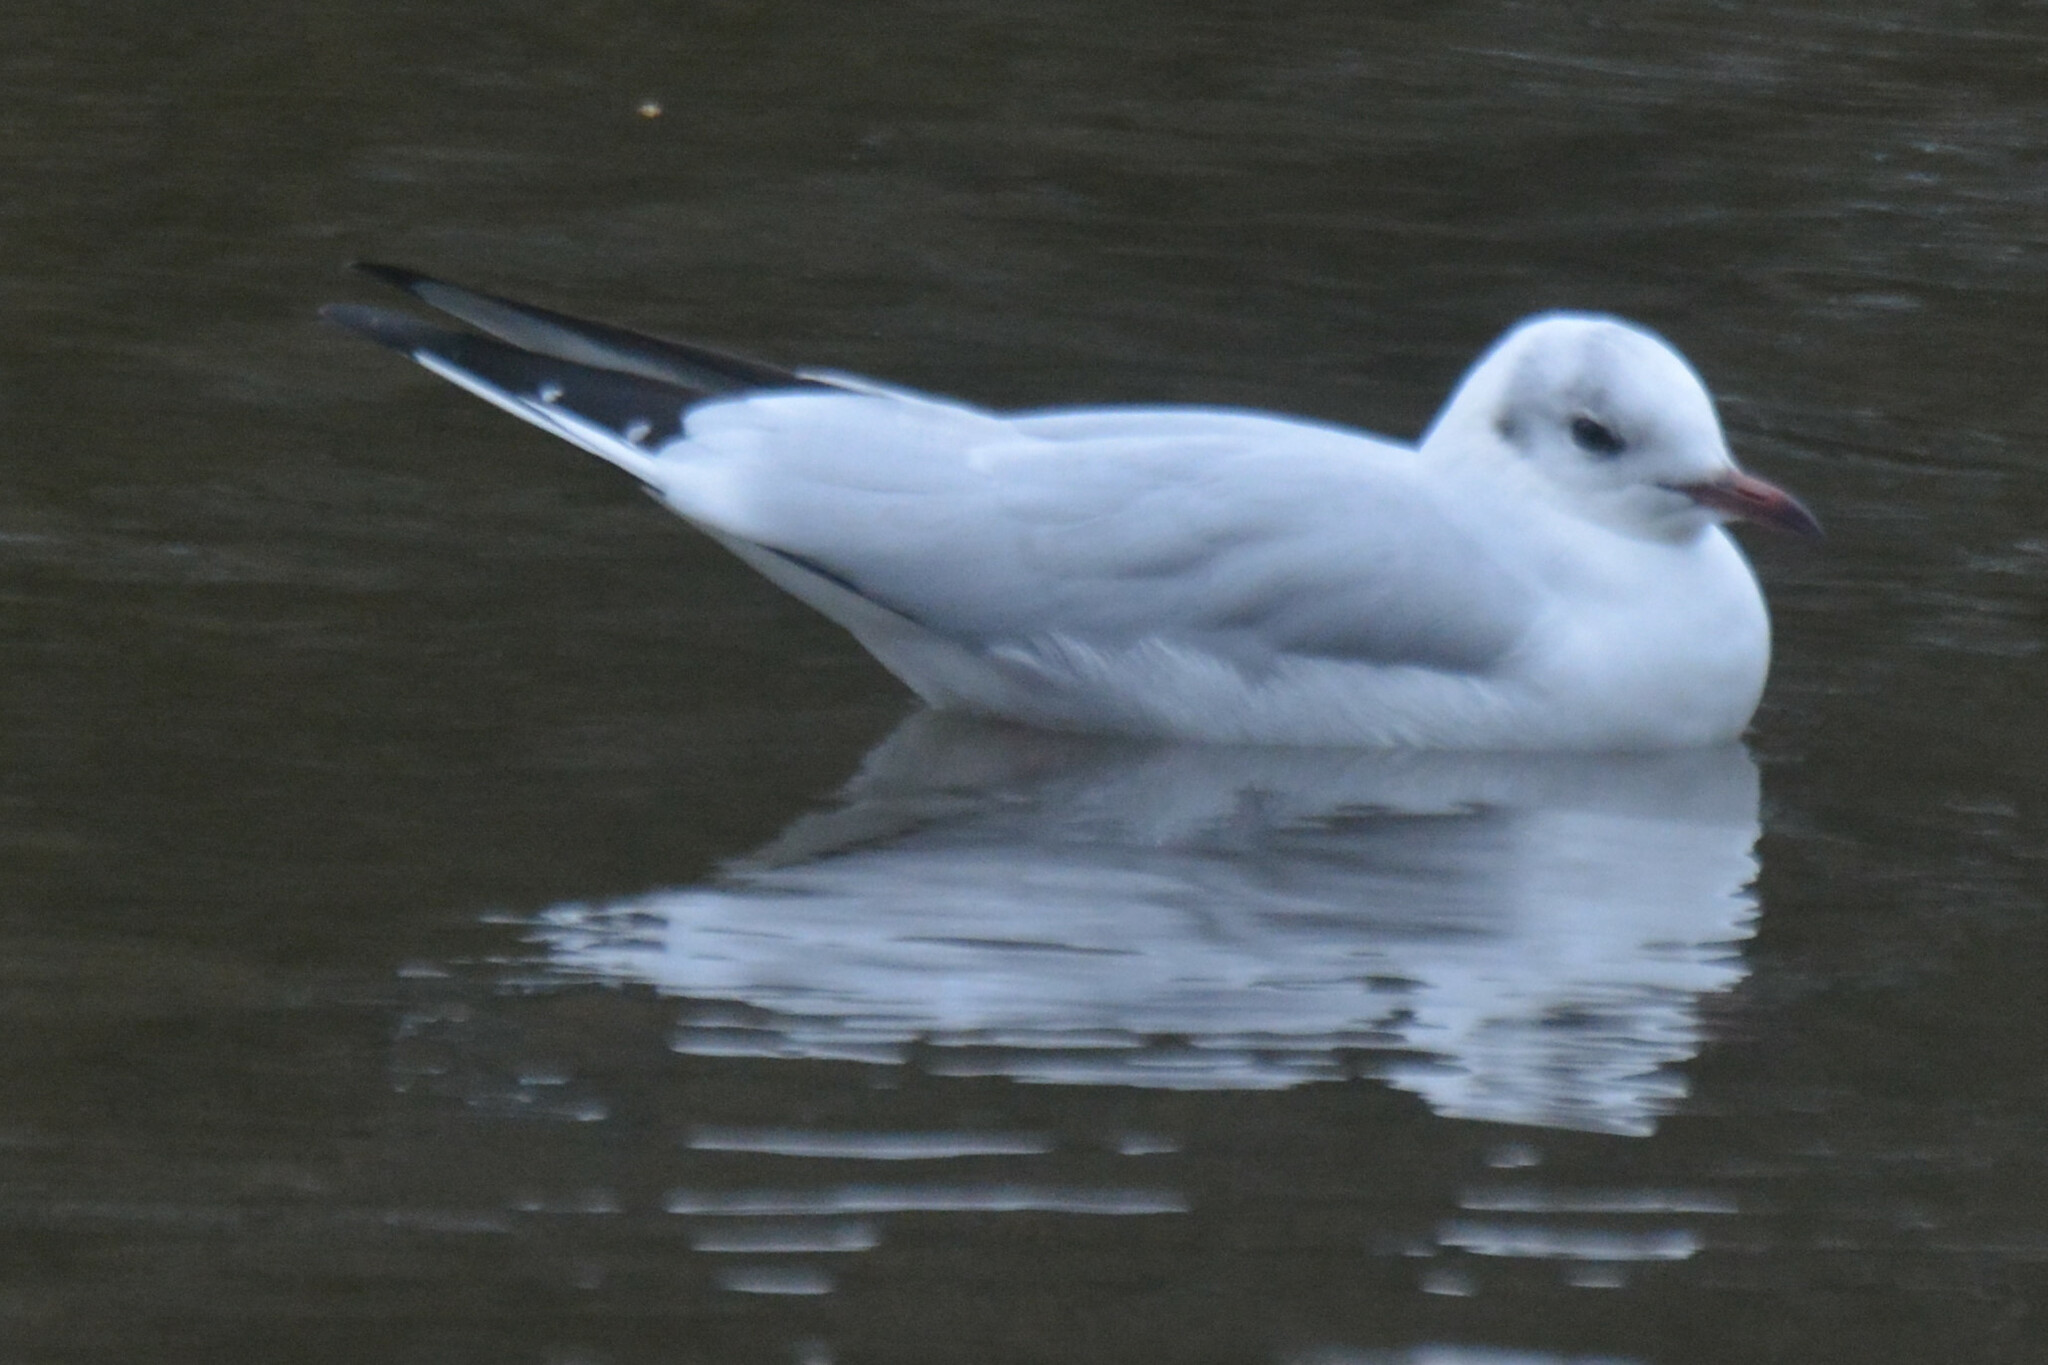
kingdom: Animalia
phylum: Chordata
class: Aves
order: Charadriiformes
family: Laridae
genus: Chroicocephalus
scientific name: Chroicocephalus ridibundus
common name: Black-headed gull
